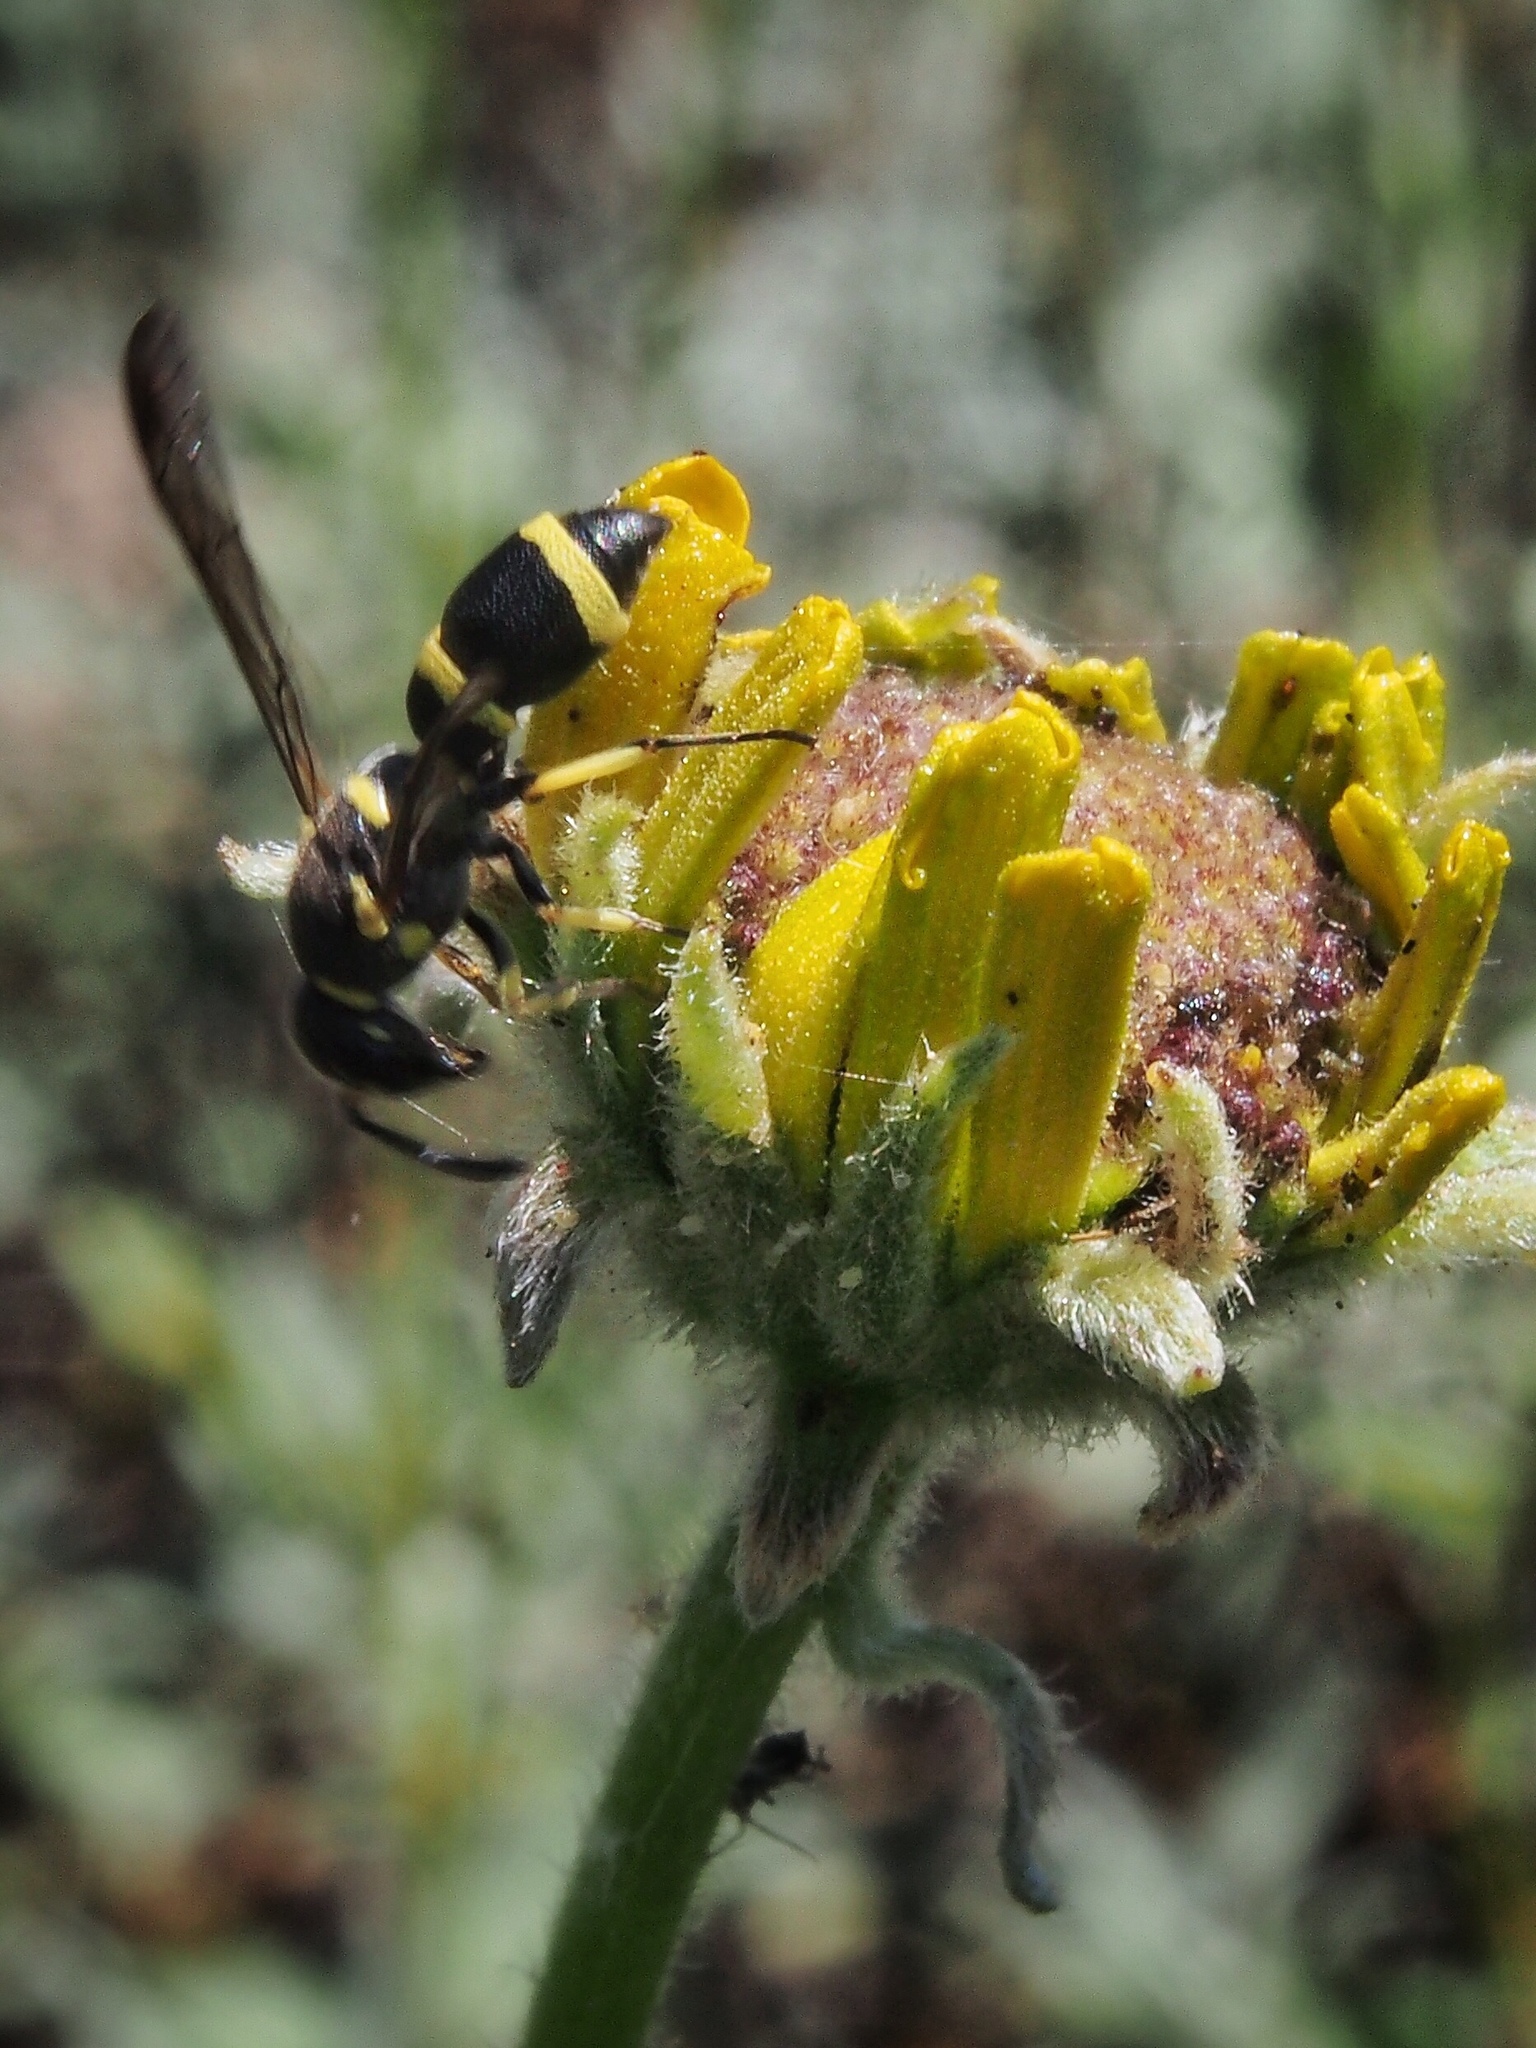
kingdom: Animalia
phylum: Arthropoda
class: Insecta
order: Hymenoptera
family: Eumenidae
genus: Parancistrocerus
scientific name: Parancistrocerus declivatus
